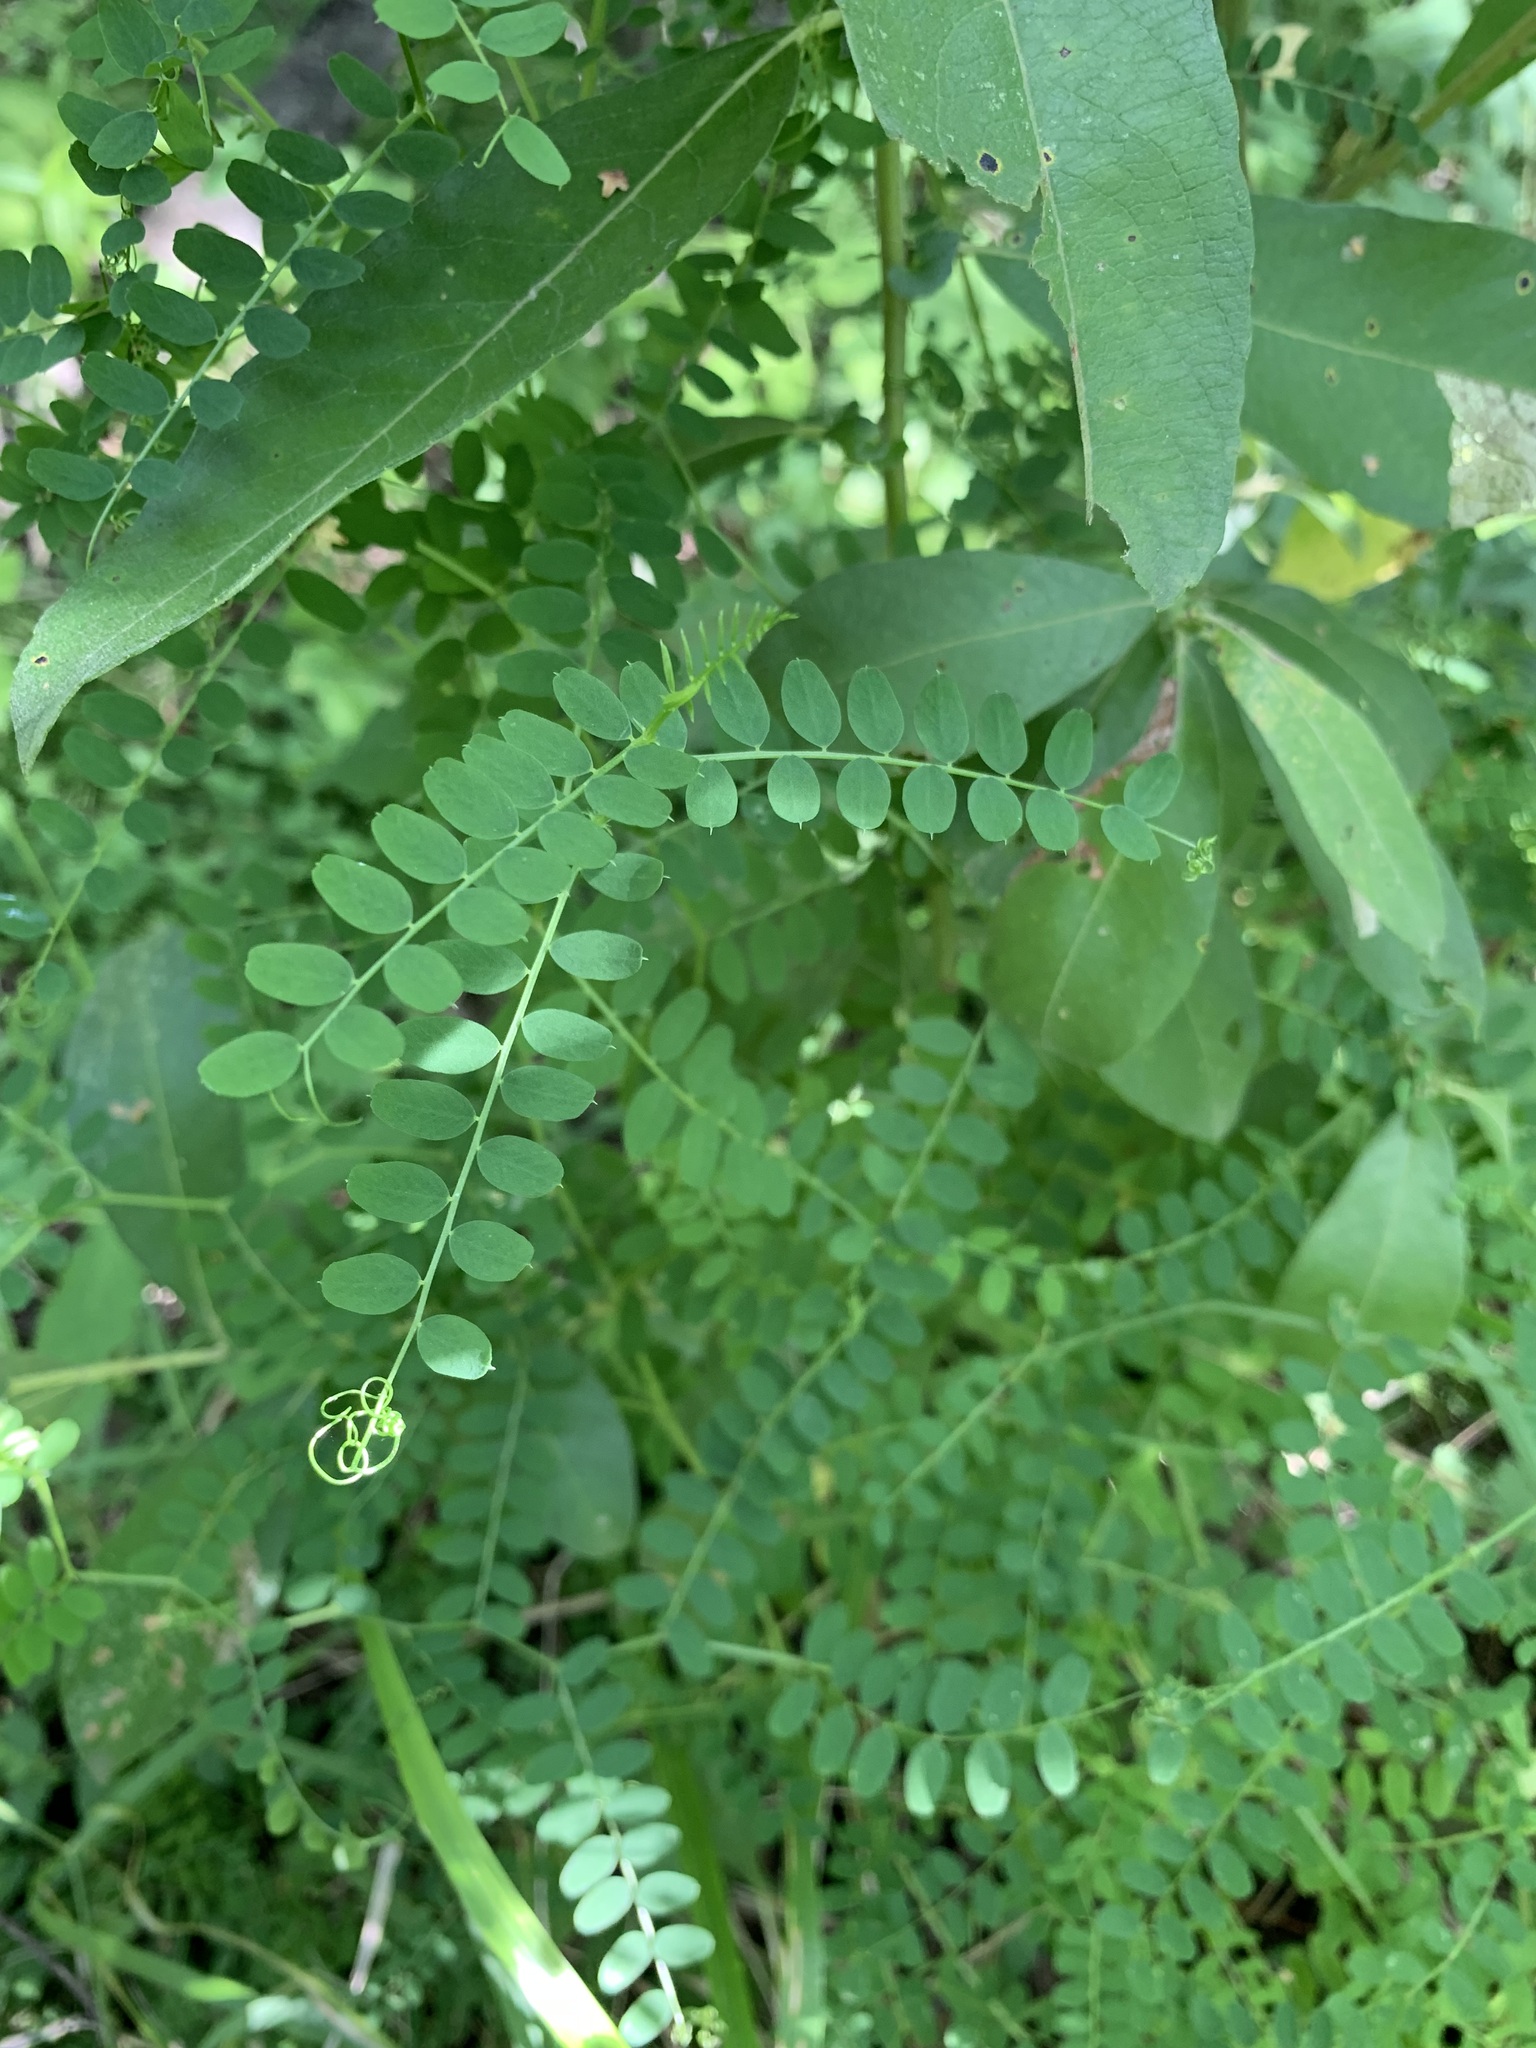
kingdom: Plantae
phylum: Tracheophyta
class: Magnoliopsida
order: Fabales
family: Fabaceae
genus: Vicia
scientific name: Vicia sylvatica
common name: Wood vetch
